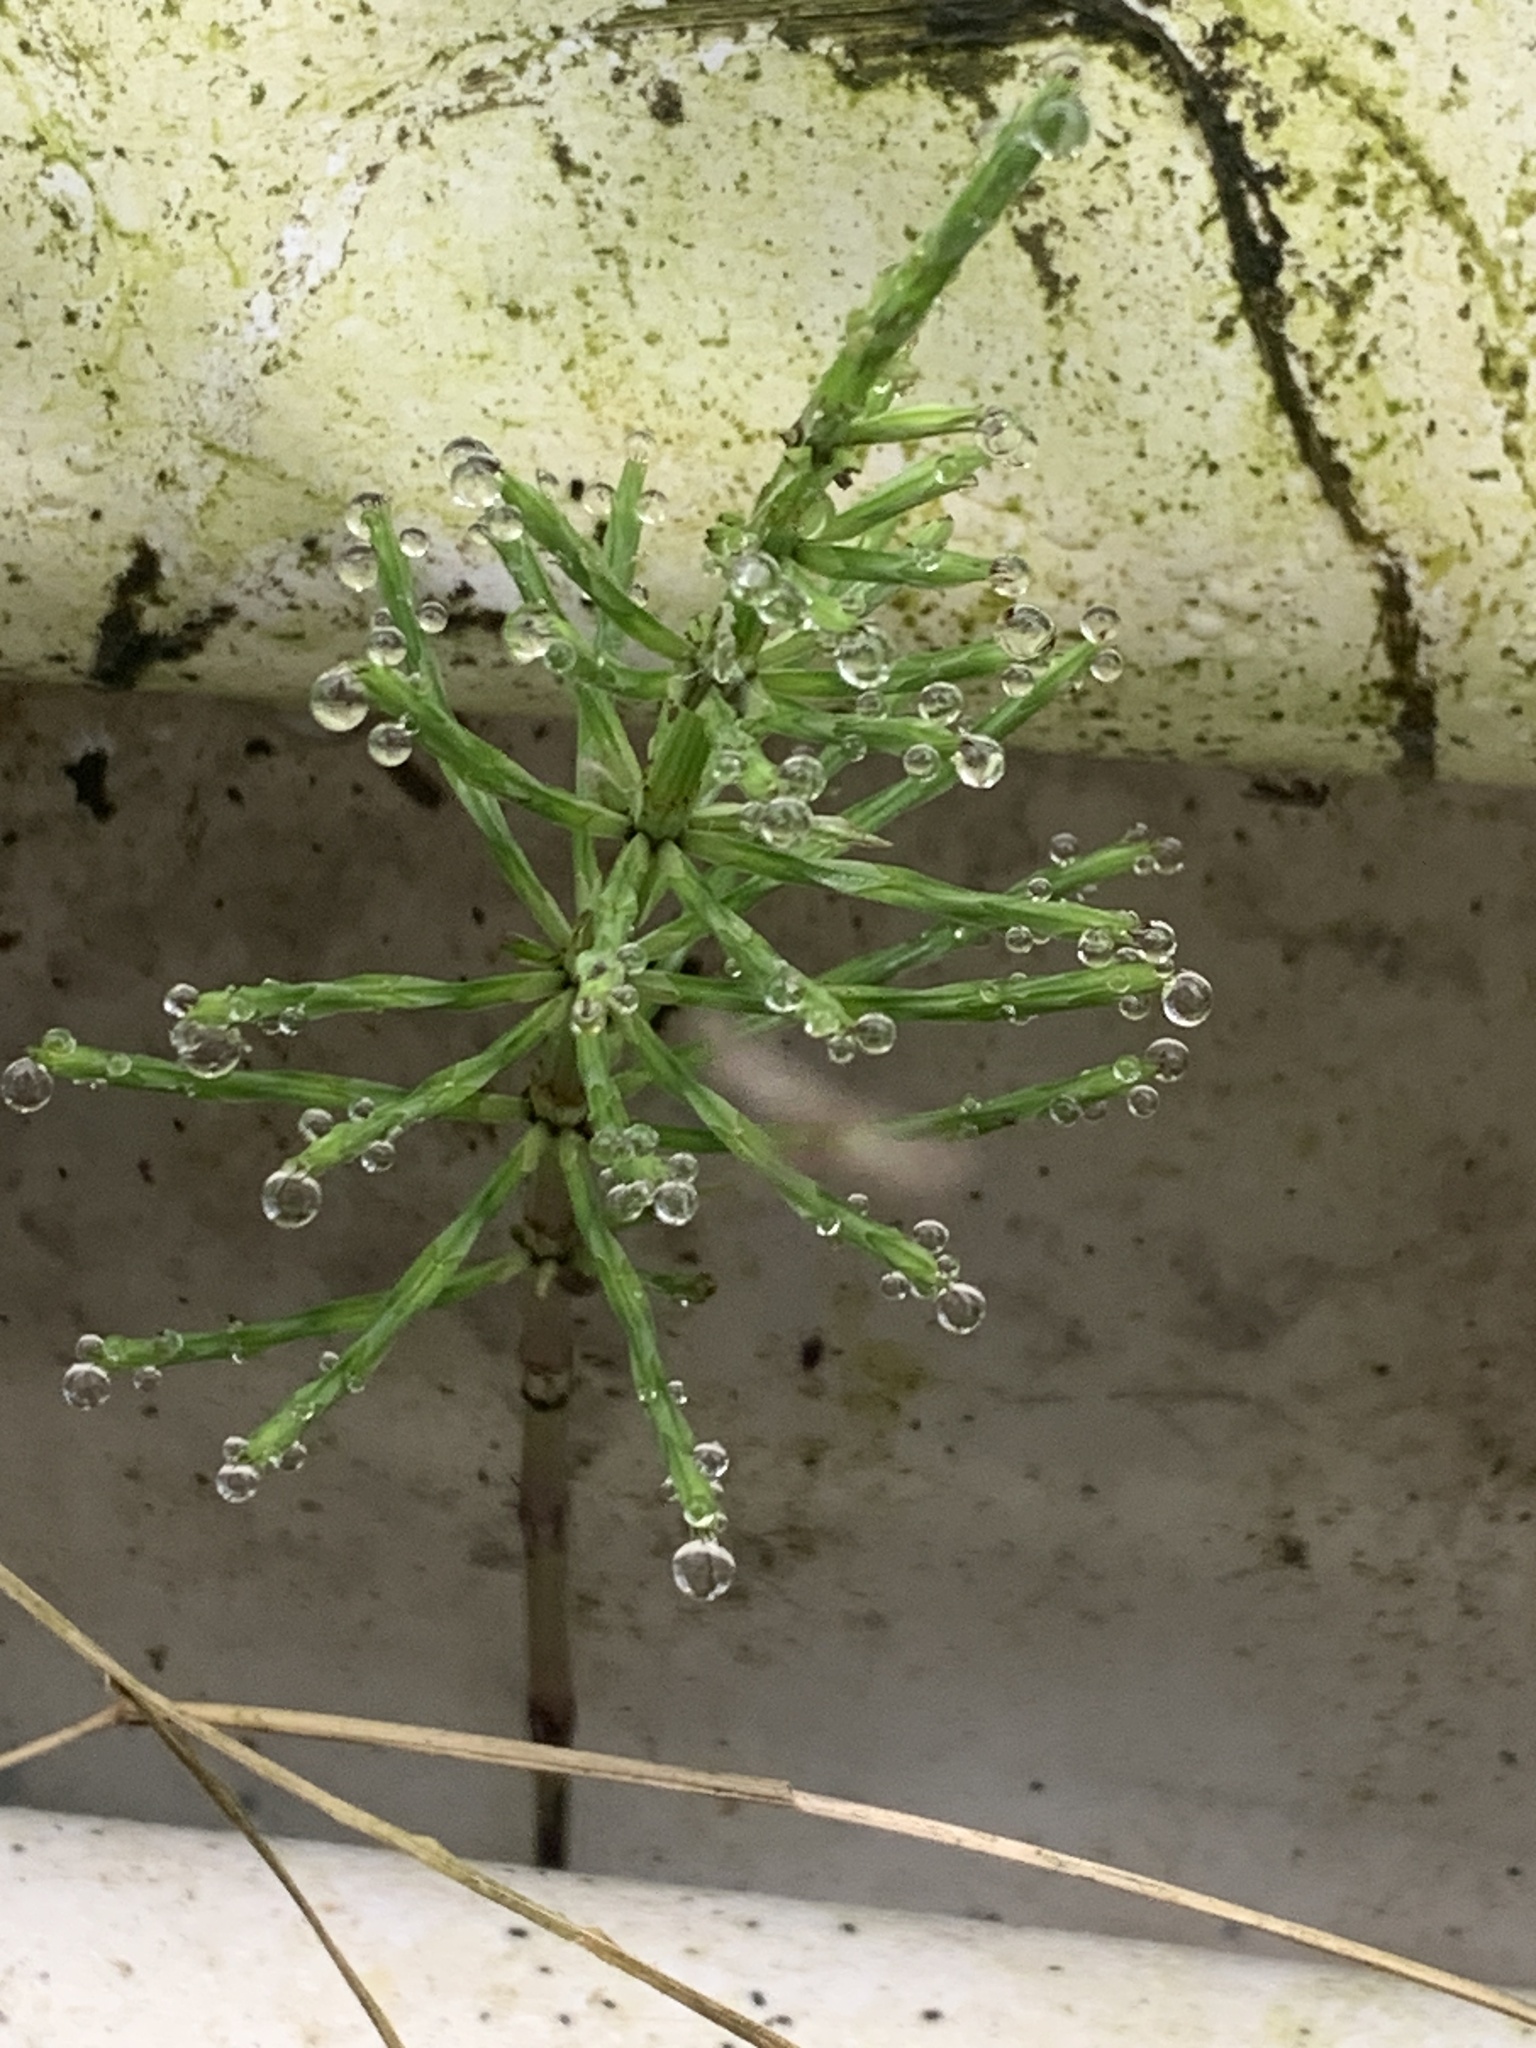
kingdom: Plantae
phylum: Tracheophyta
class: Polypodiopsida
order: Equisetales
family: Equisetaceae
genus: Equisetum
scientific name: Equisetum arvense
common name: Field horsetail
